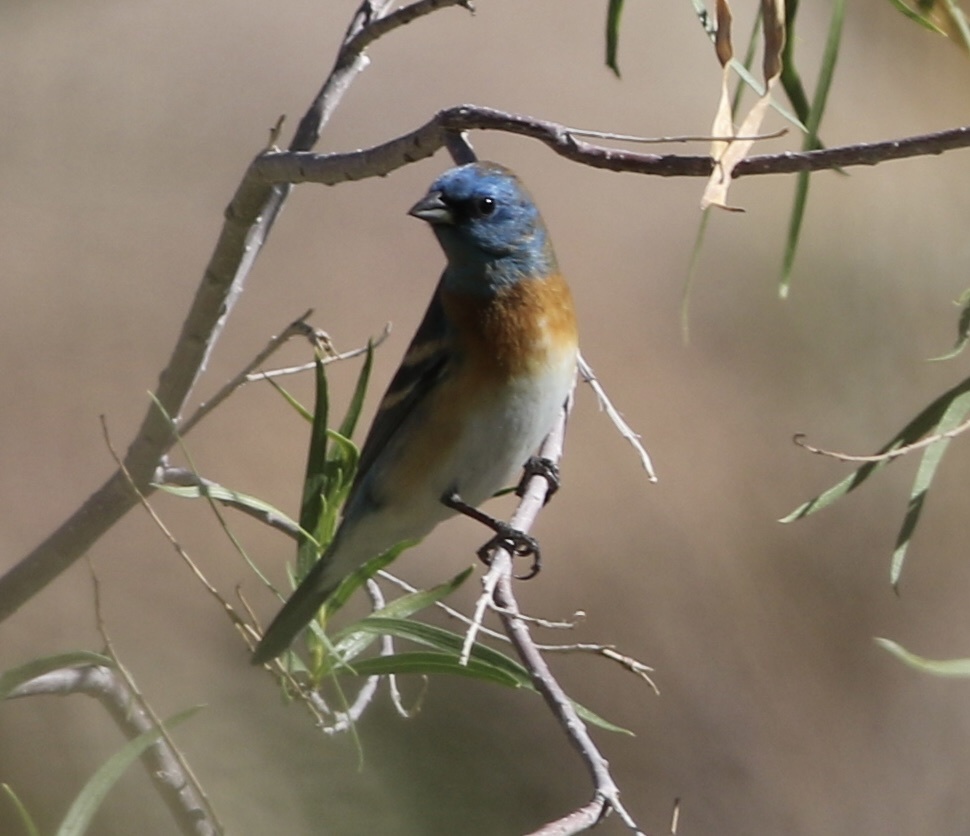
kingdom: Animalia
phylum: Chordata
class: Aves
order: Passeriformes
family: Cardinalidae
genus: Passerina
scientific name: Passerina amoena
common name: Lazuli bunting
